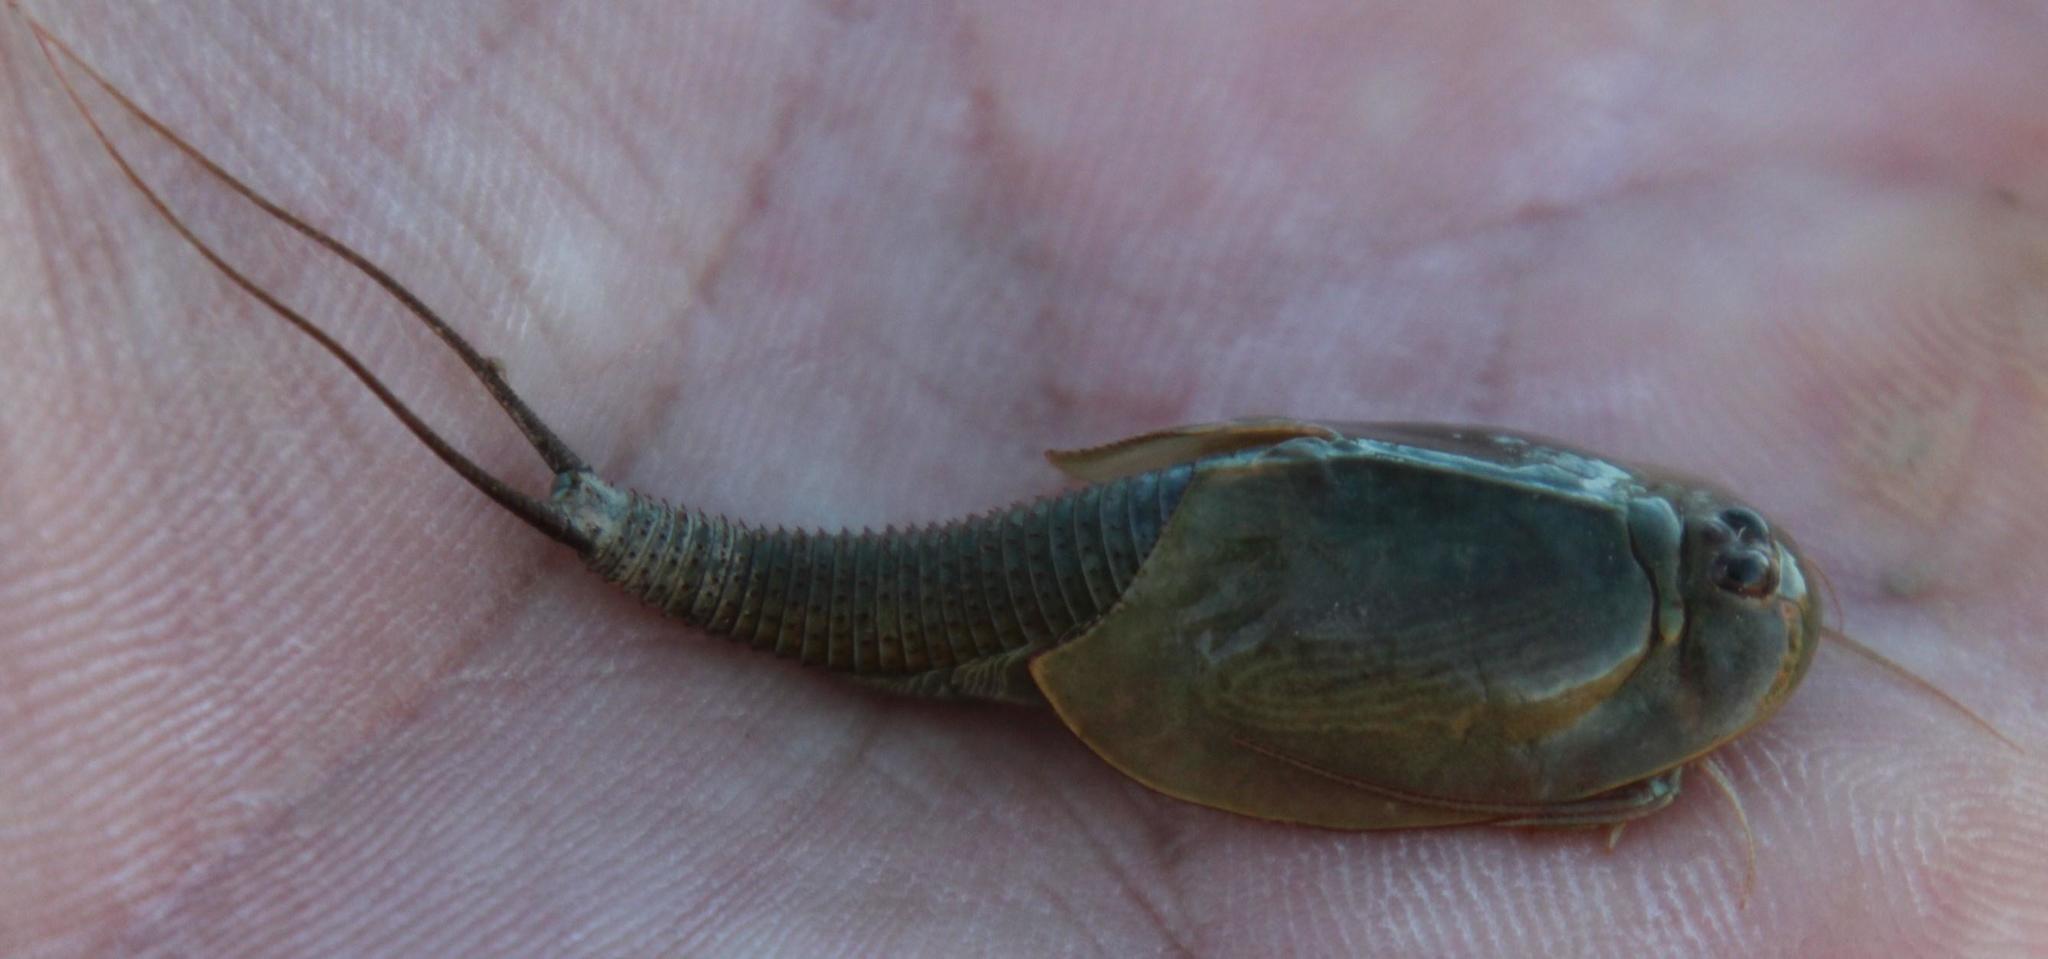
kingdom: Animalia
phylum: Arthropoda
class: Branchiopoda
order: Notostraca
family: Triopsidae
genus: Triops
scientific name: Triops granarius
